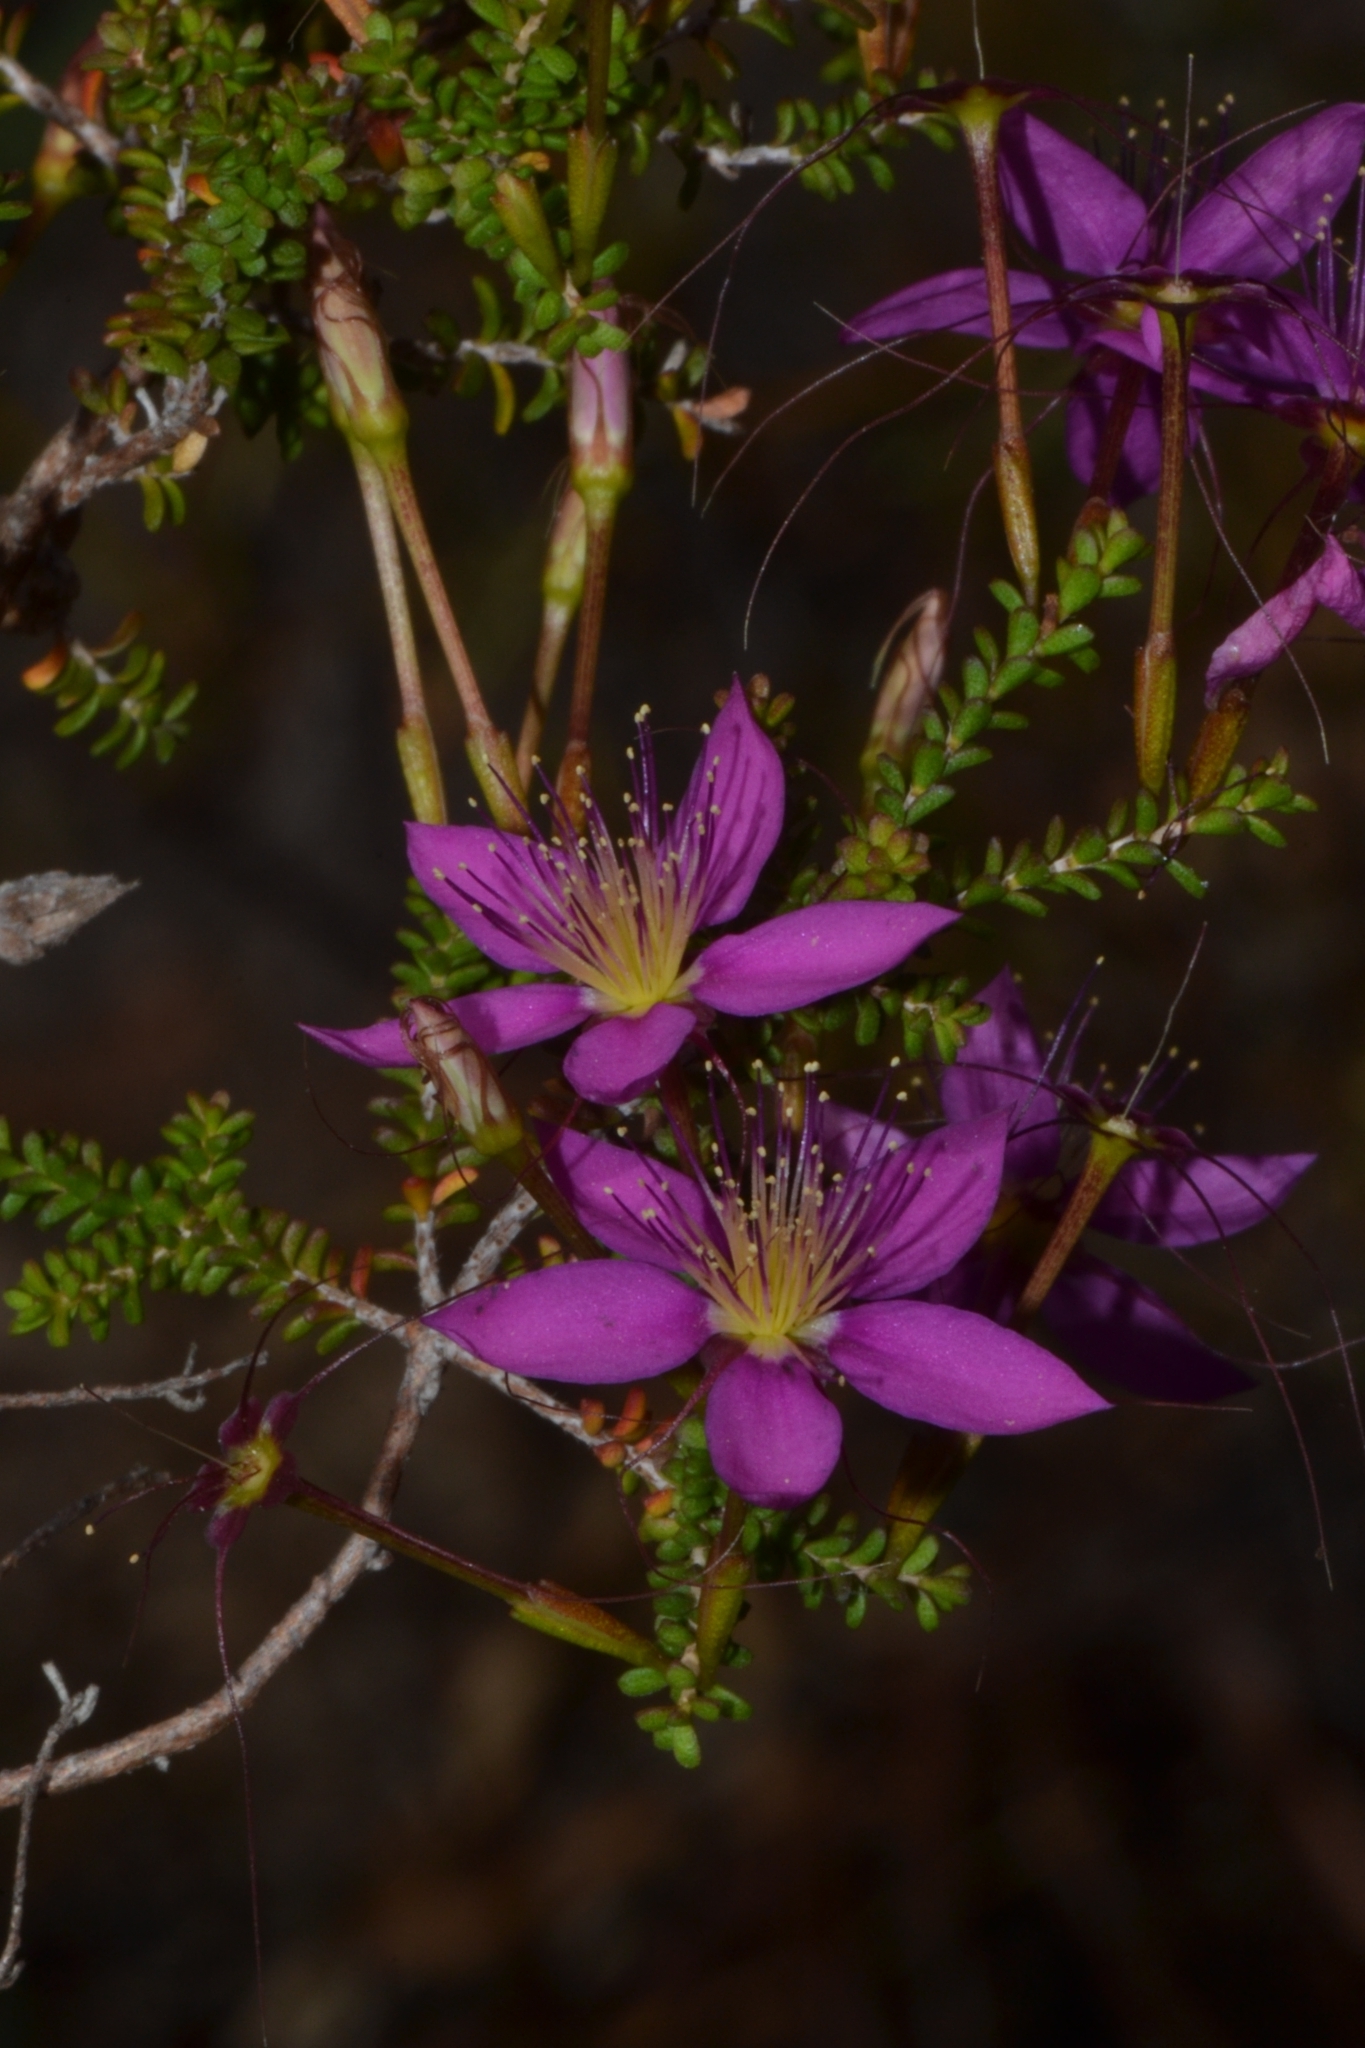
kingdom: Plantae
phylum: Tracheophyta
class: Magnoliopsida
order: Myrtales
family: Myrtaceae
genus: Calytrix
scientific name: Calytrix fraseri
